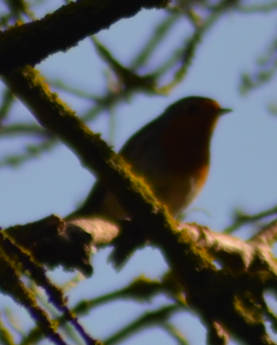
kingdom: Animalia
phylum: Chordata
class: Aves
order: Passeriformes
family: Muscicapidae
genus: Erithacus
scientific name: Erithacus rubecula
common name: European robin
